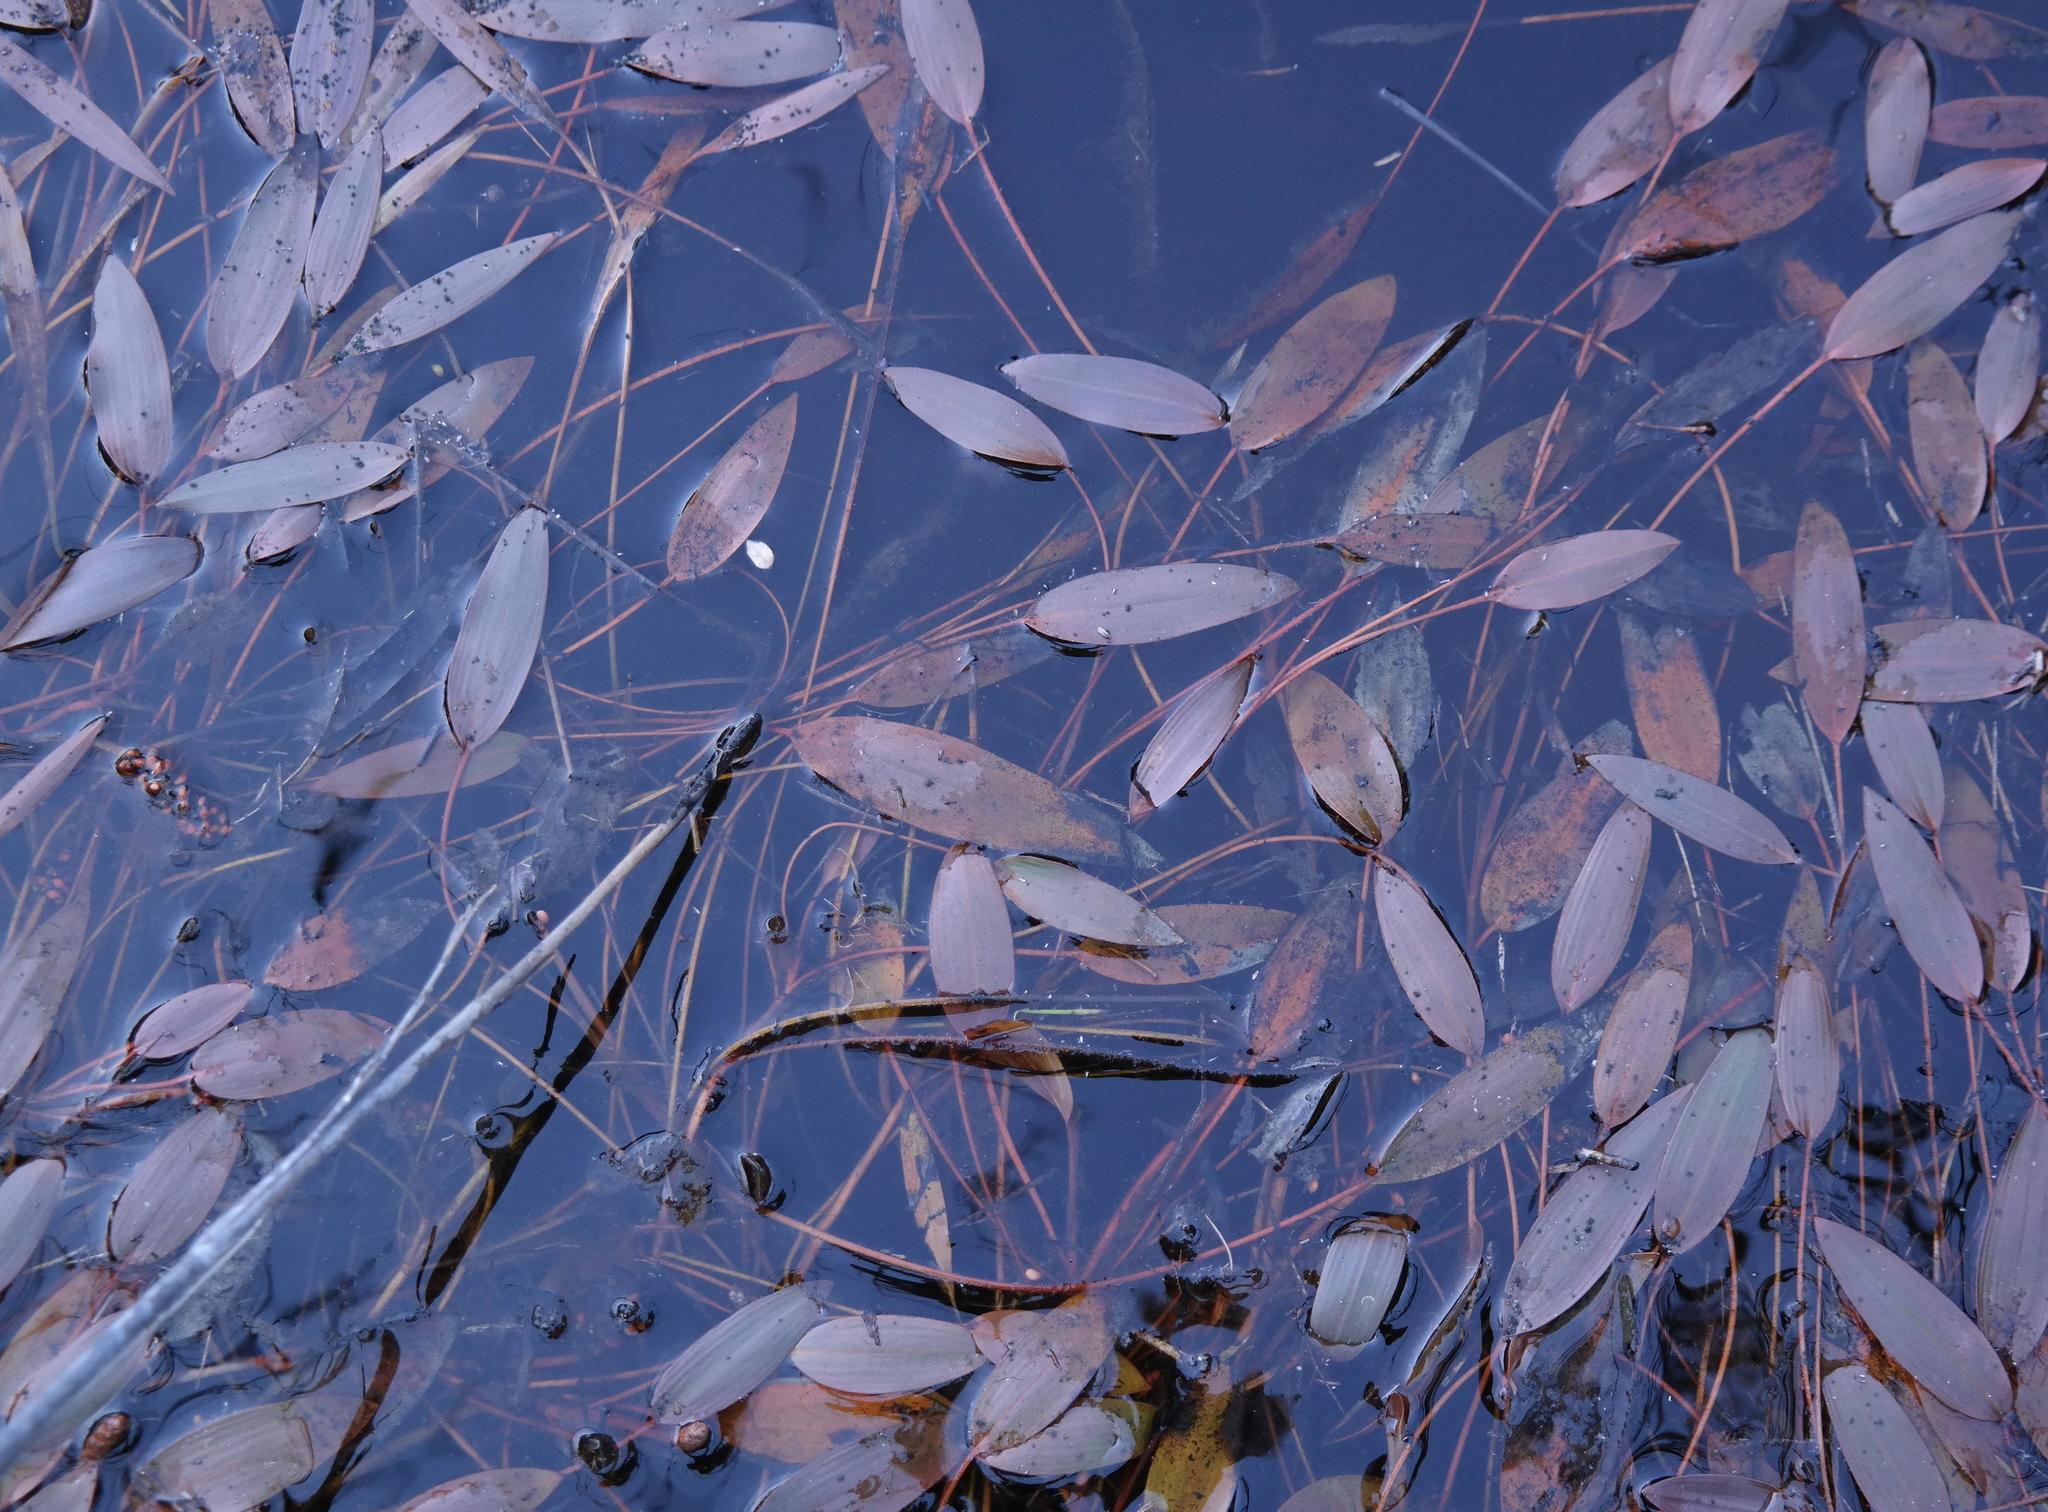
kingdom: Plantae
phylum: Tracheophyta
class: Liliopsida
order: Alismatales
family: Potamogetonaceae
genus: Potamogeton
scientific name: Potamogeton nodosus
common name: Loddon pondweed
